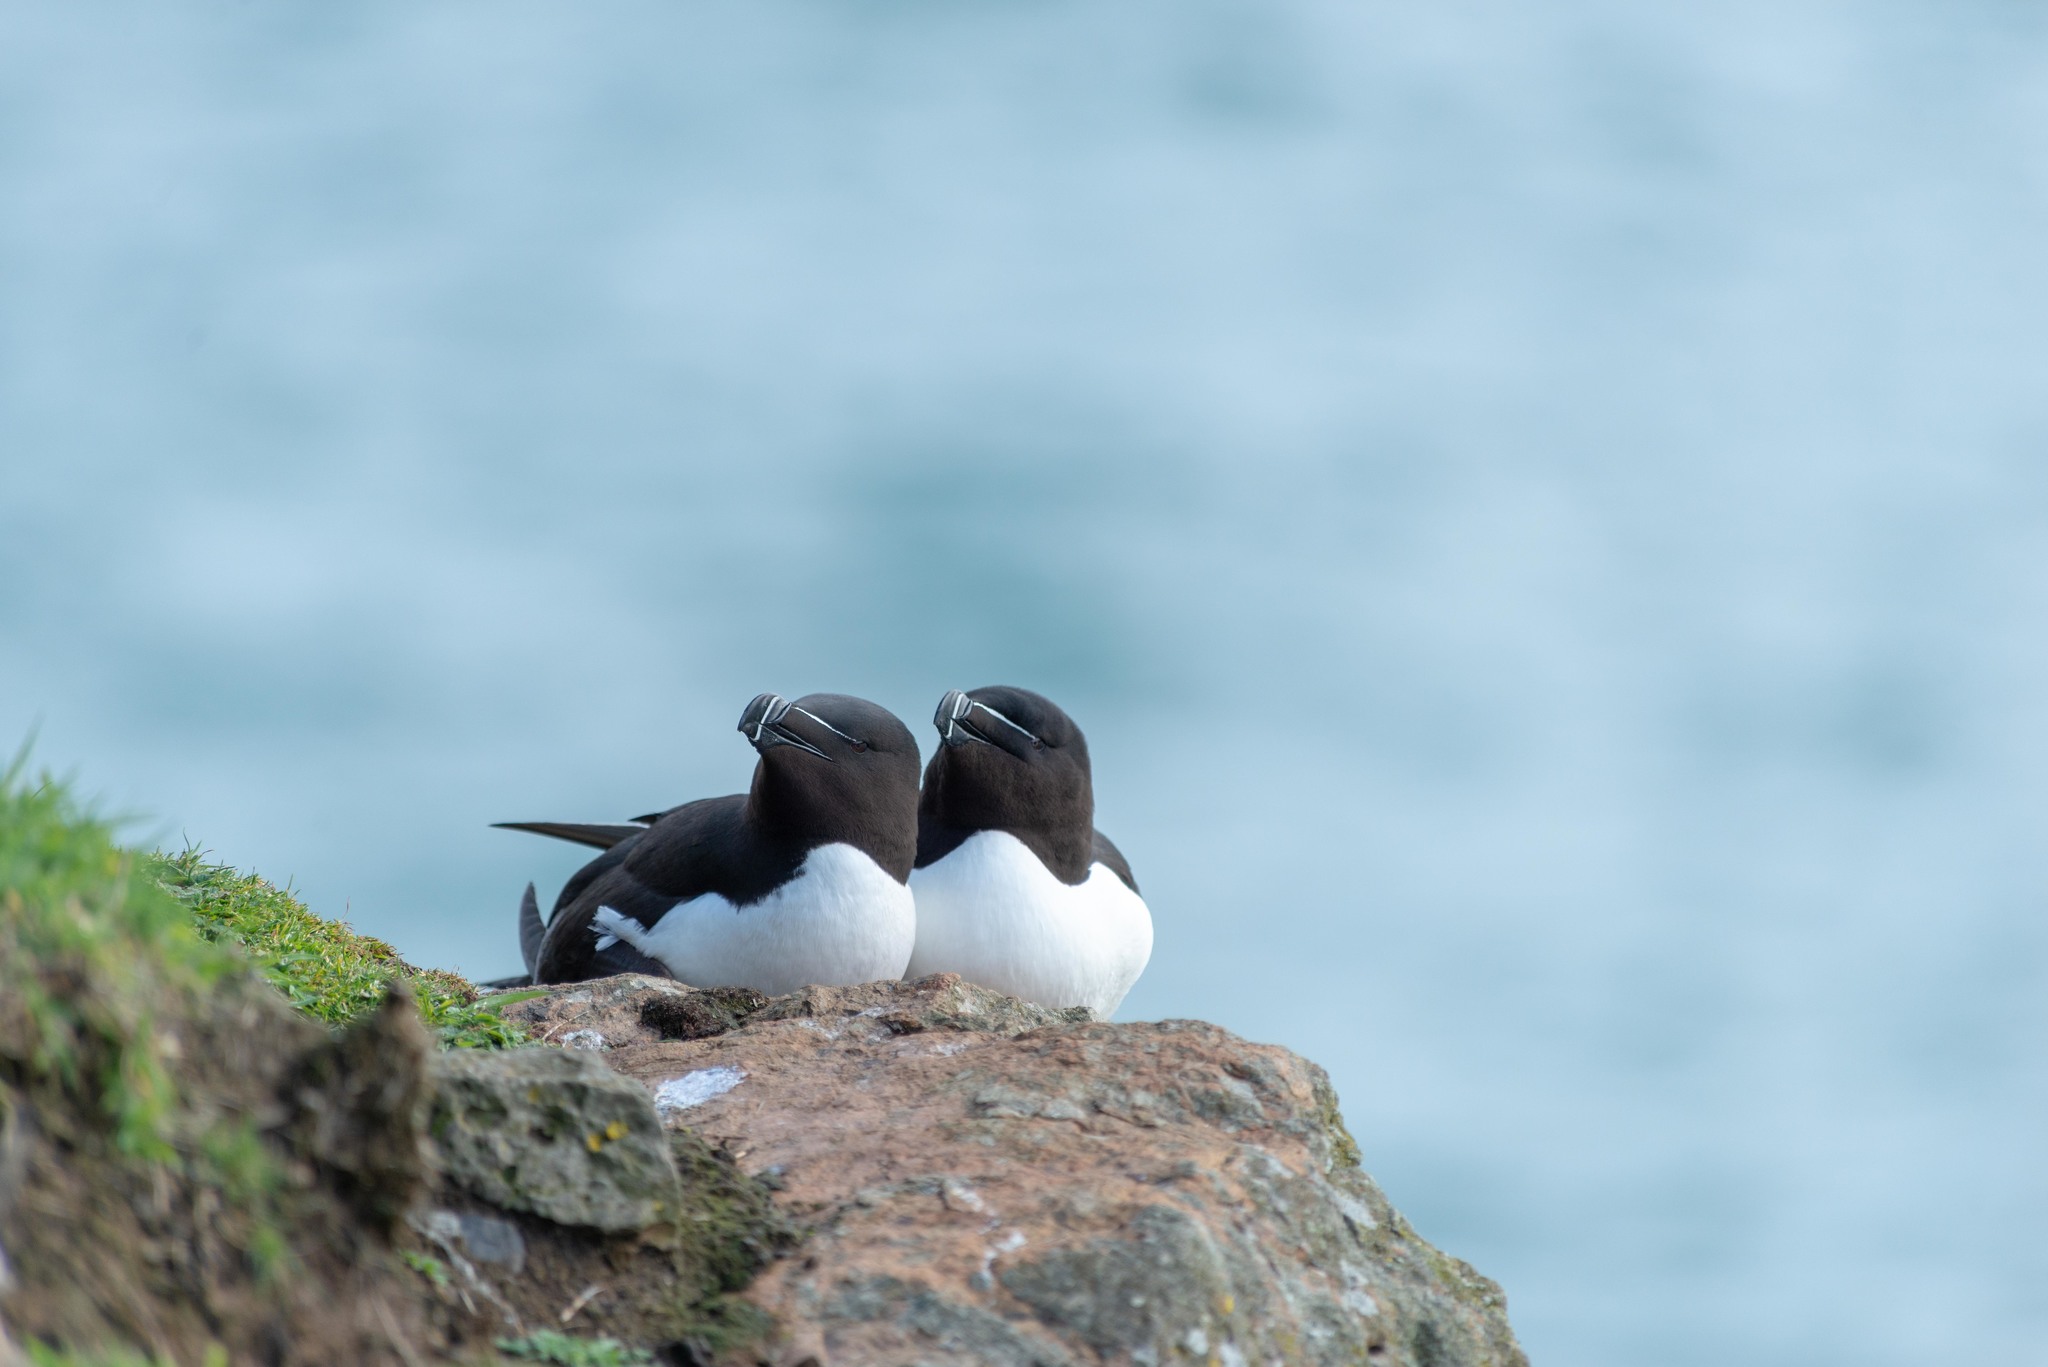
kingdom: Animalia
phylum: Chordata
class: Aves
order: Charadriiformes
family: Alcidae
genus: Alca
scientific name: Alca torda
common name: Razorbill
